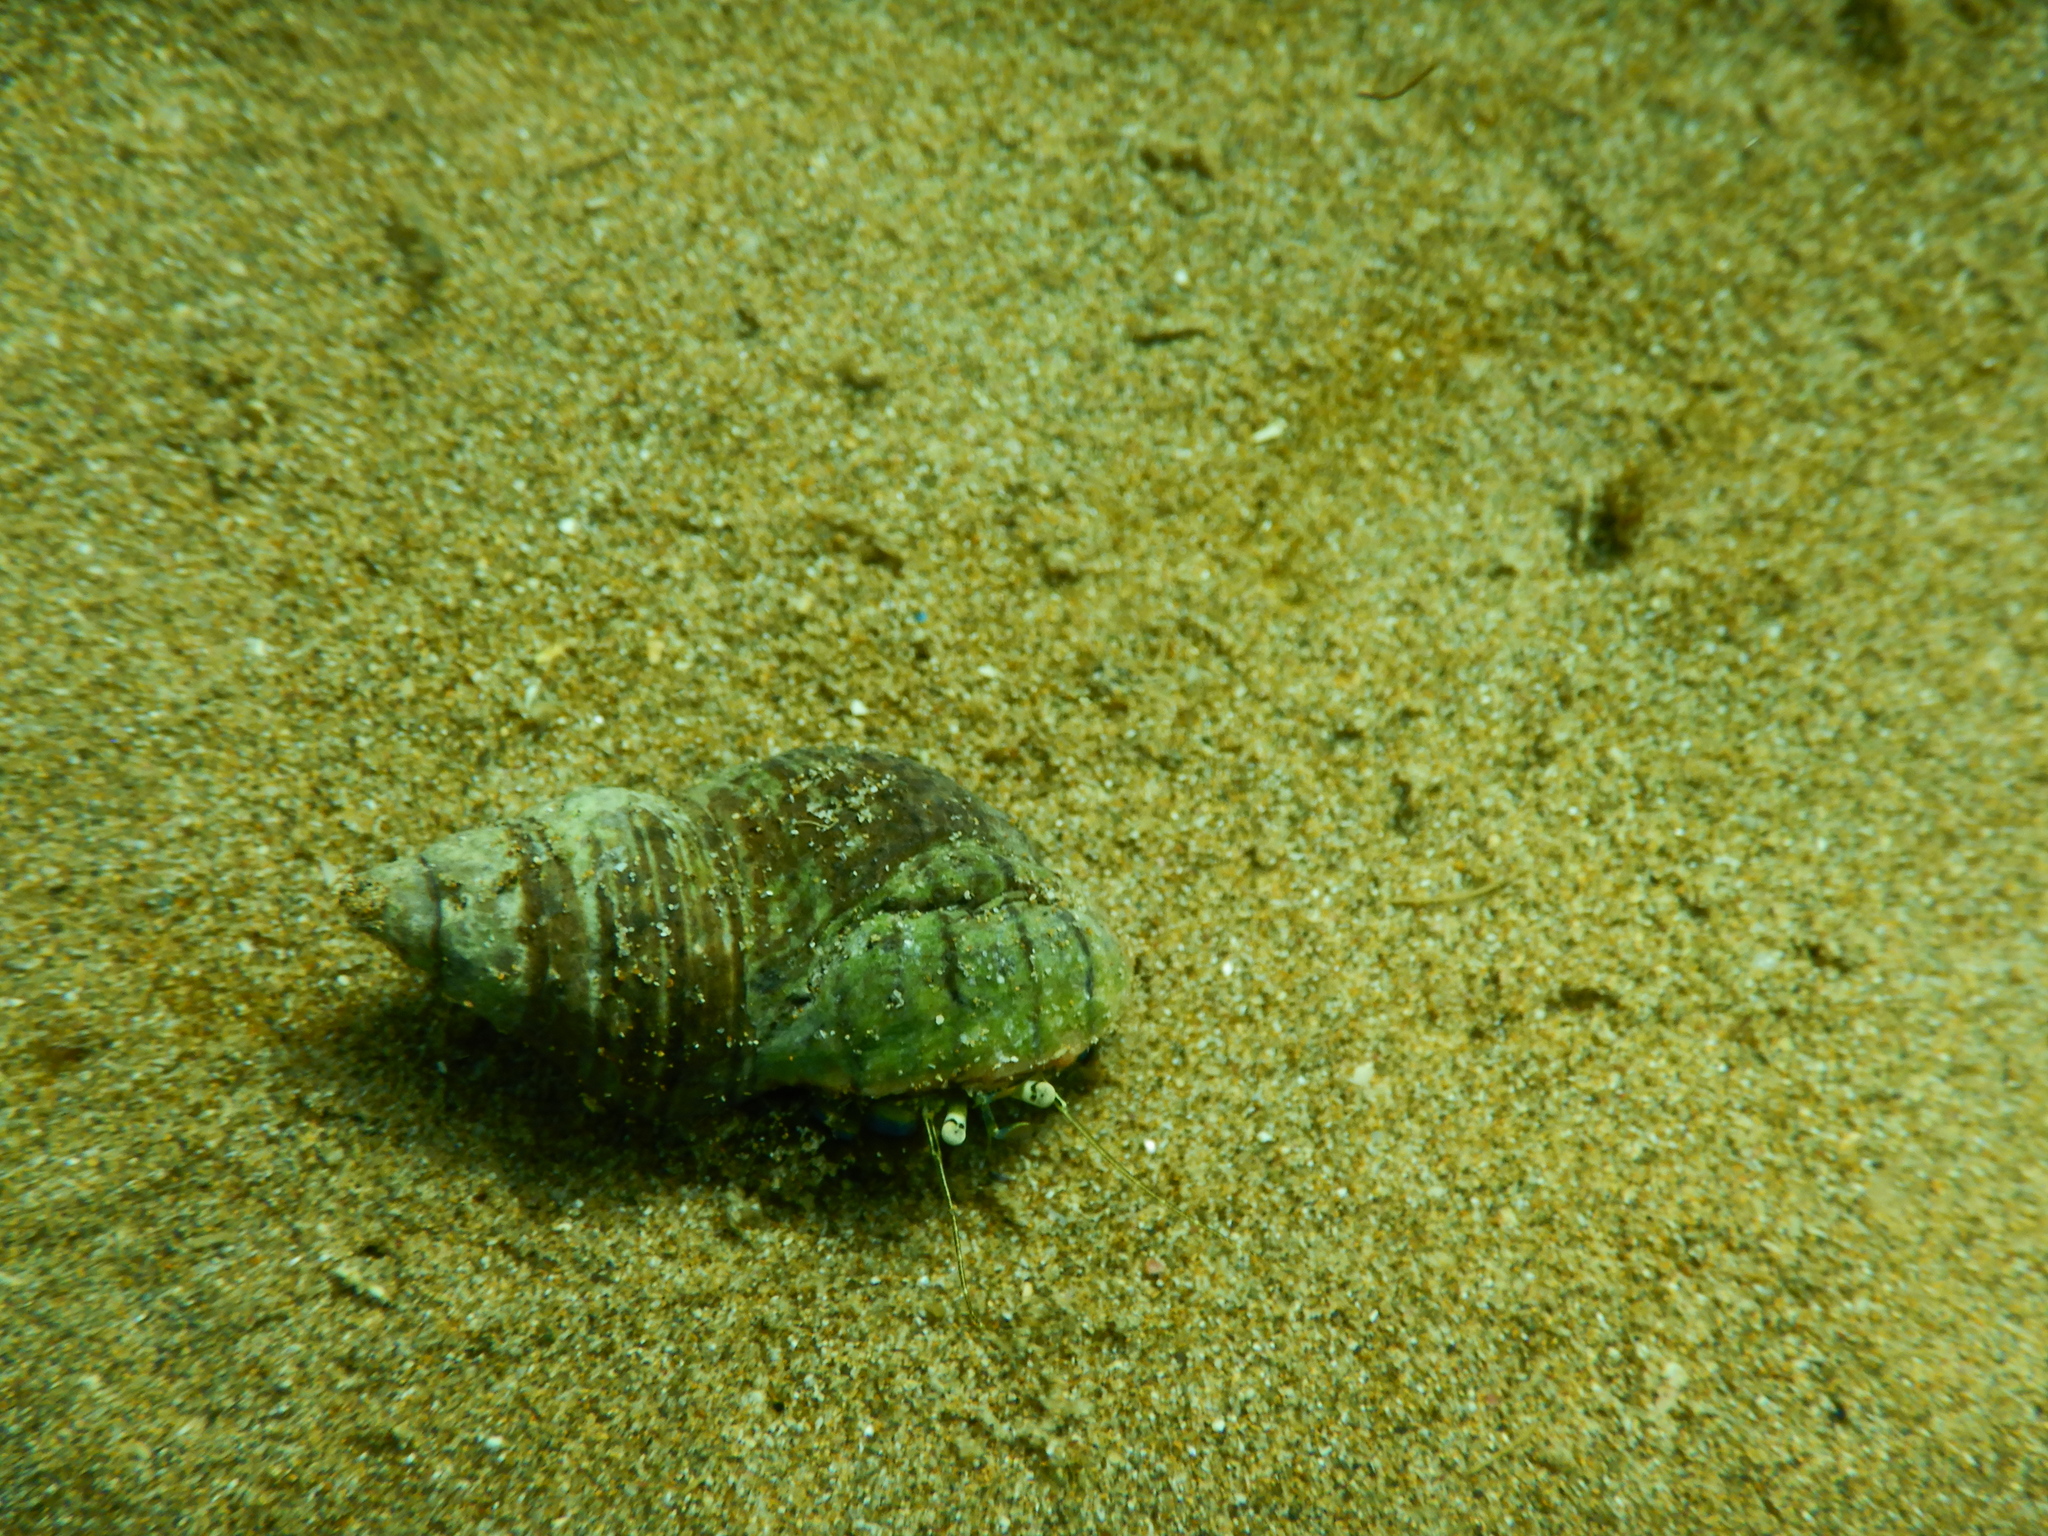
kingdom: Animalia
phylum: Arthropoda
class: Malacostraca
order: Decapoda
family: Paguridae
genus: Pagurus
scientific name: Pagurus novizealandiae
